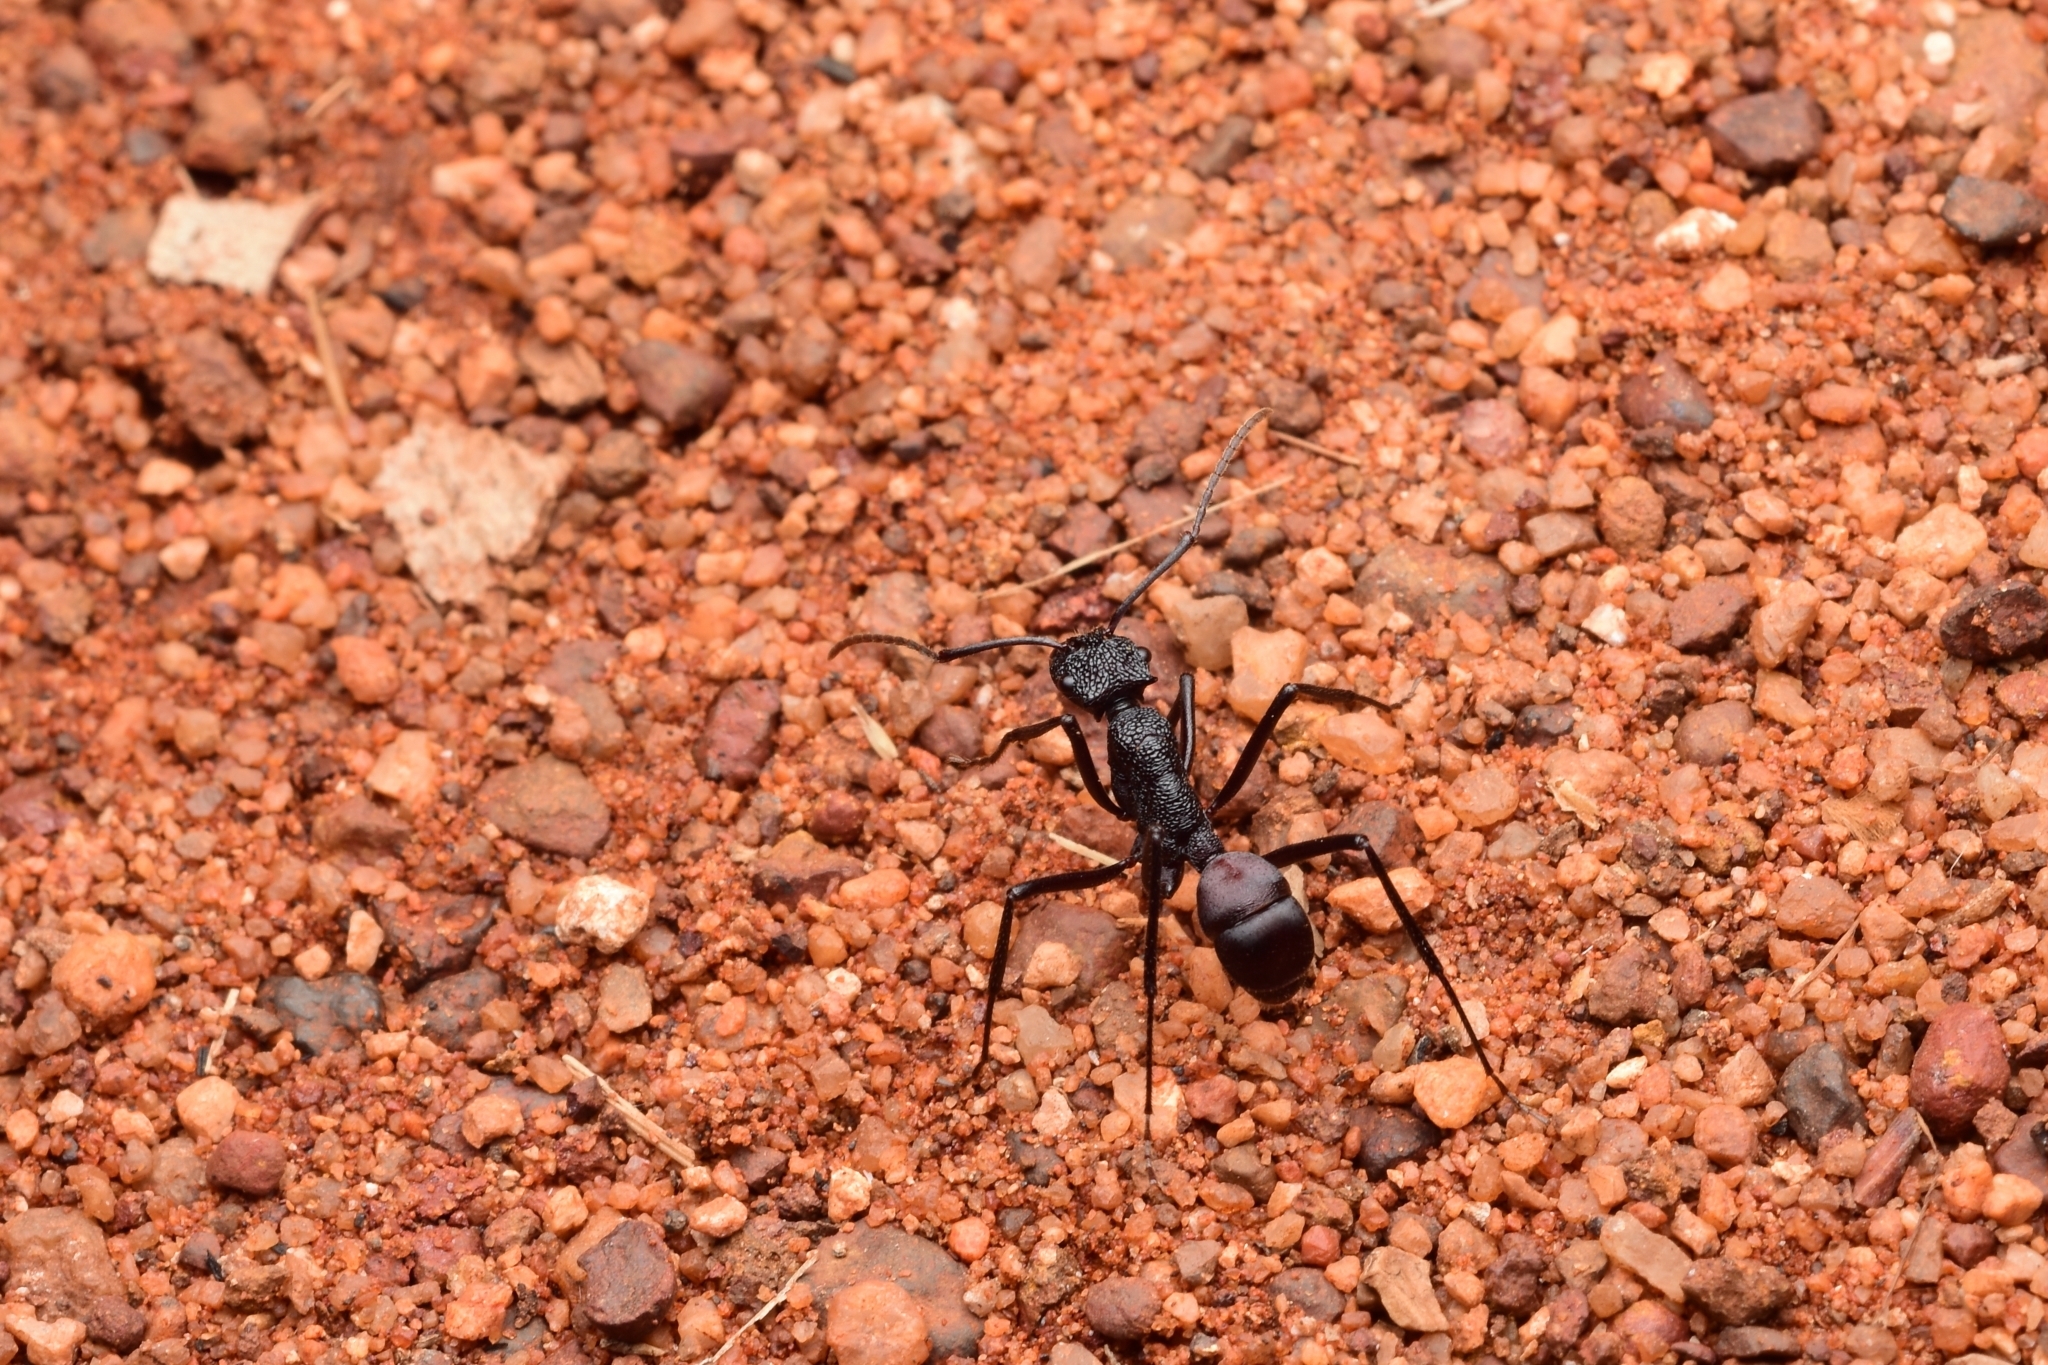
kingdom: Animalia
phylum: Arthropoda
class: Insecta
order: Hymenoptera
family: Formicidae
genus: Rhytidoponera
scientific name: Rhytidoponera taurus
